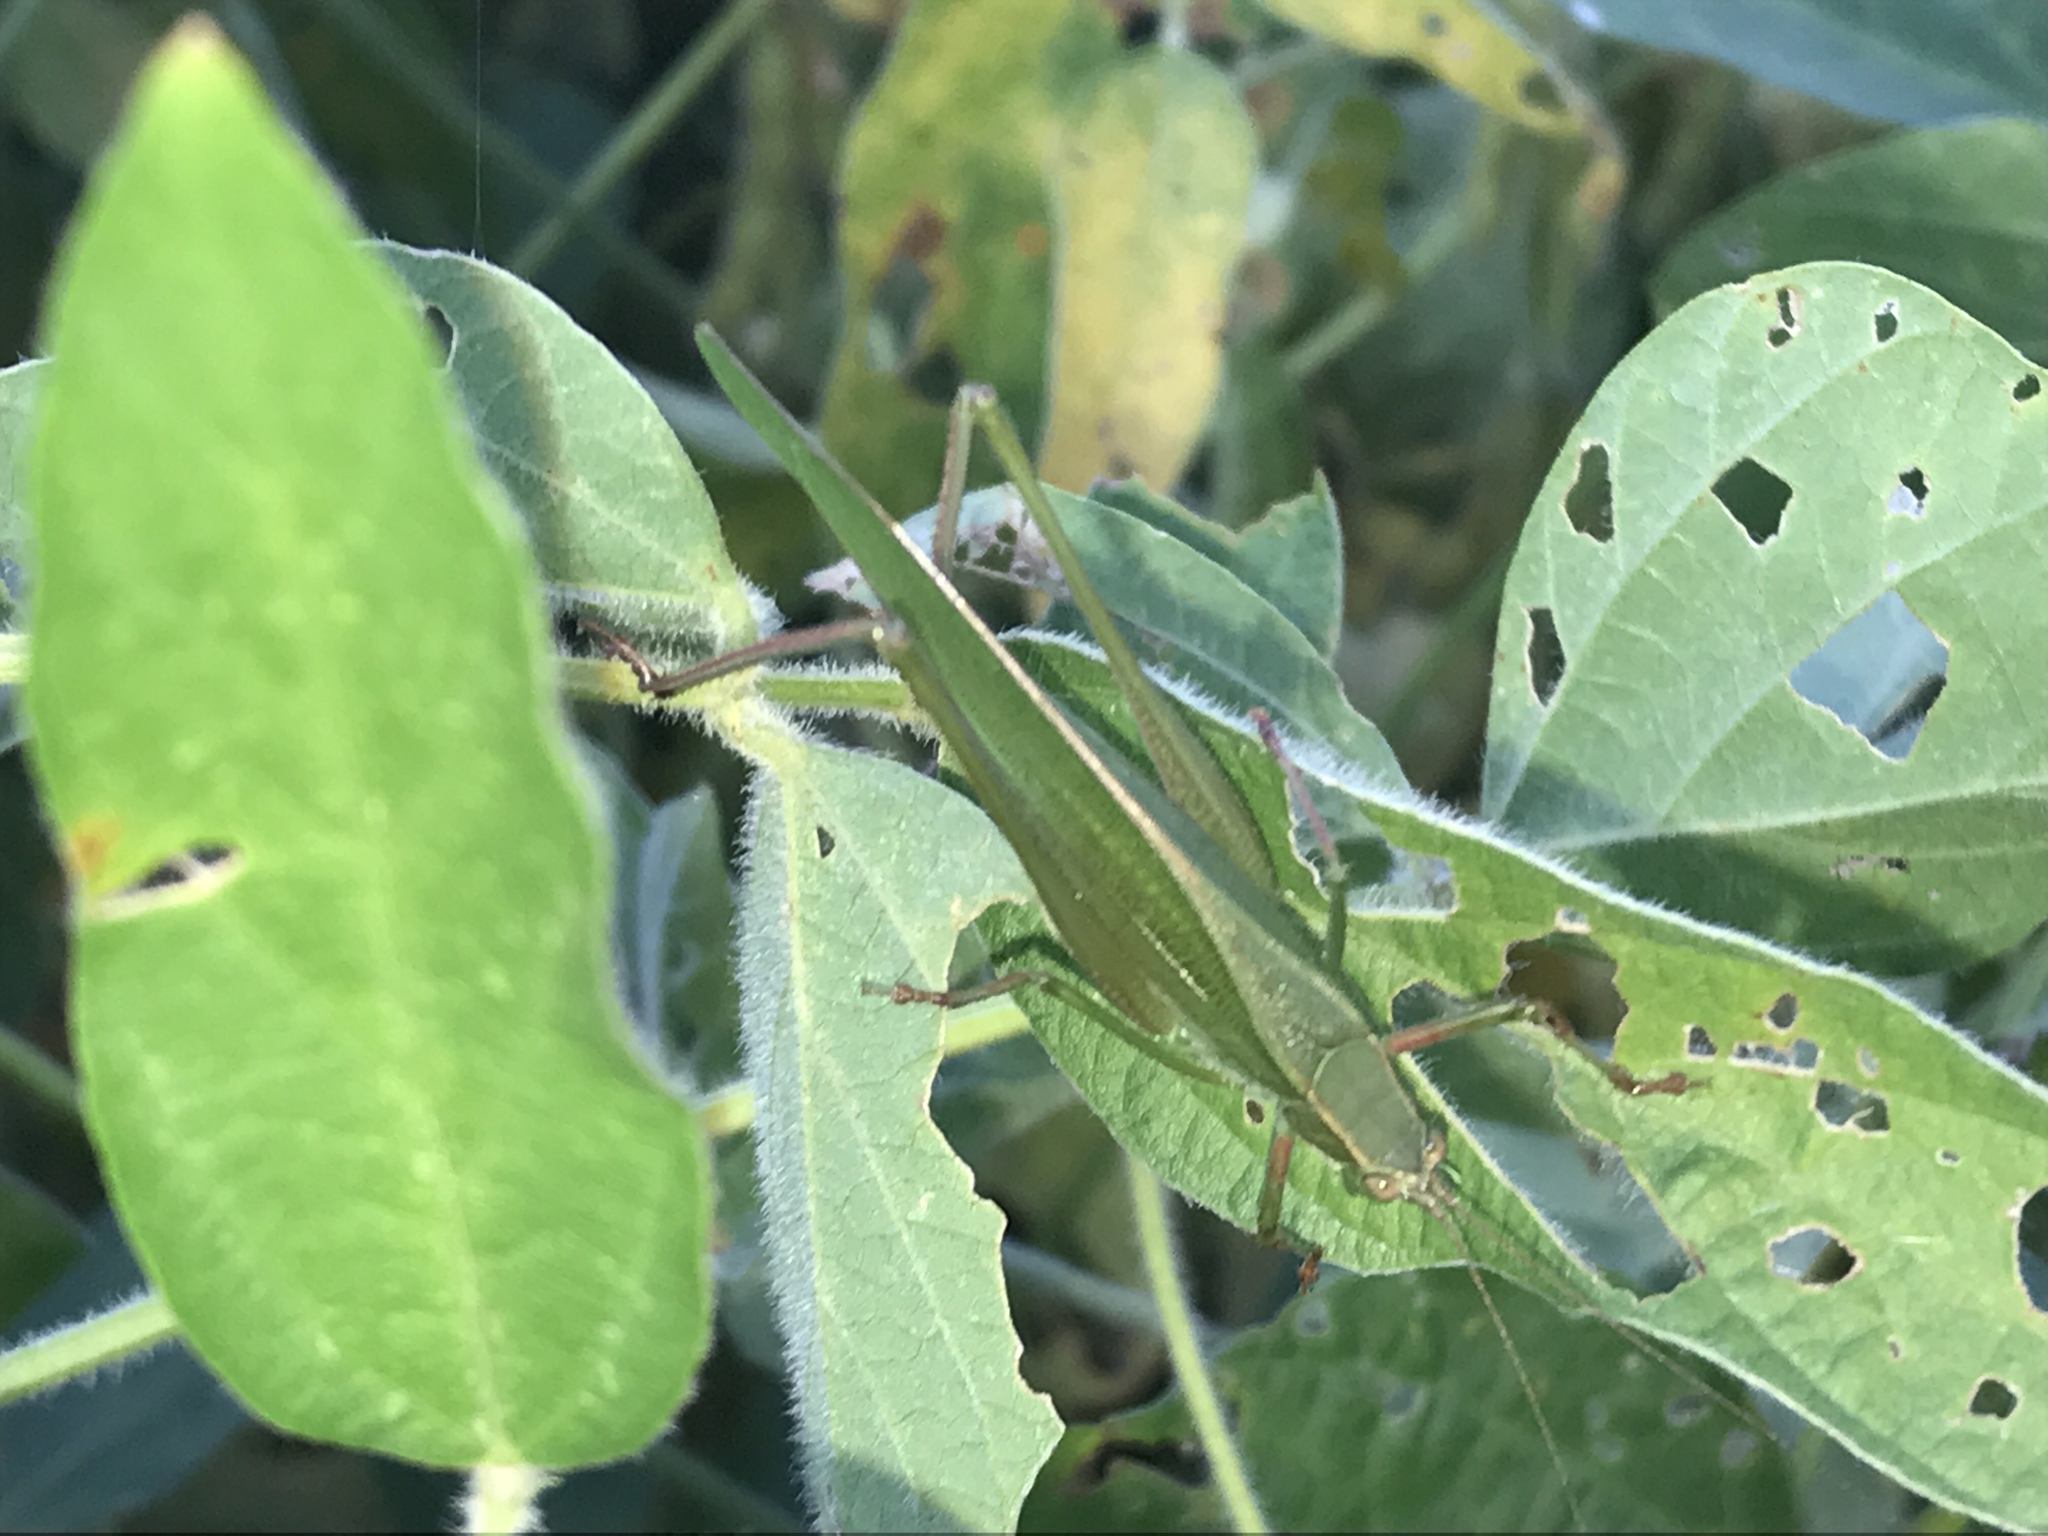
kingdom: Animalia
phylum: Arthropoda
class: Insecta
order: Orthoptera
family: Tettigoniidae
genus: Scudderia
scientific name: Scudderia furcata
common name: Fork-tailed bush katydid
